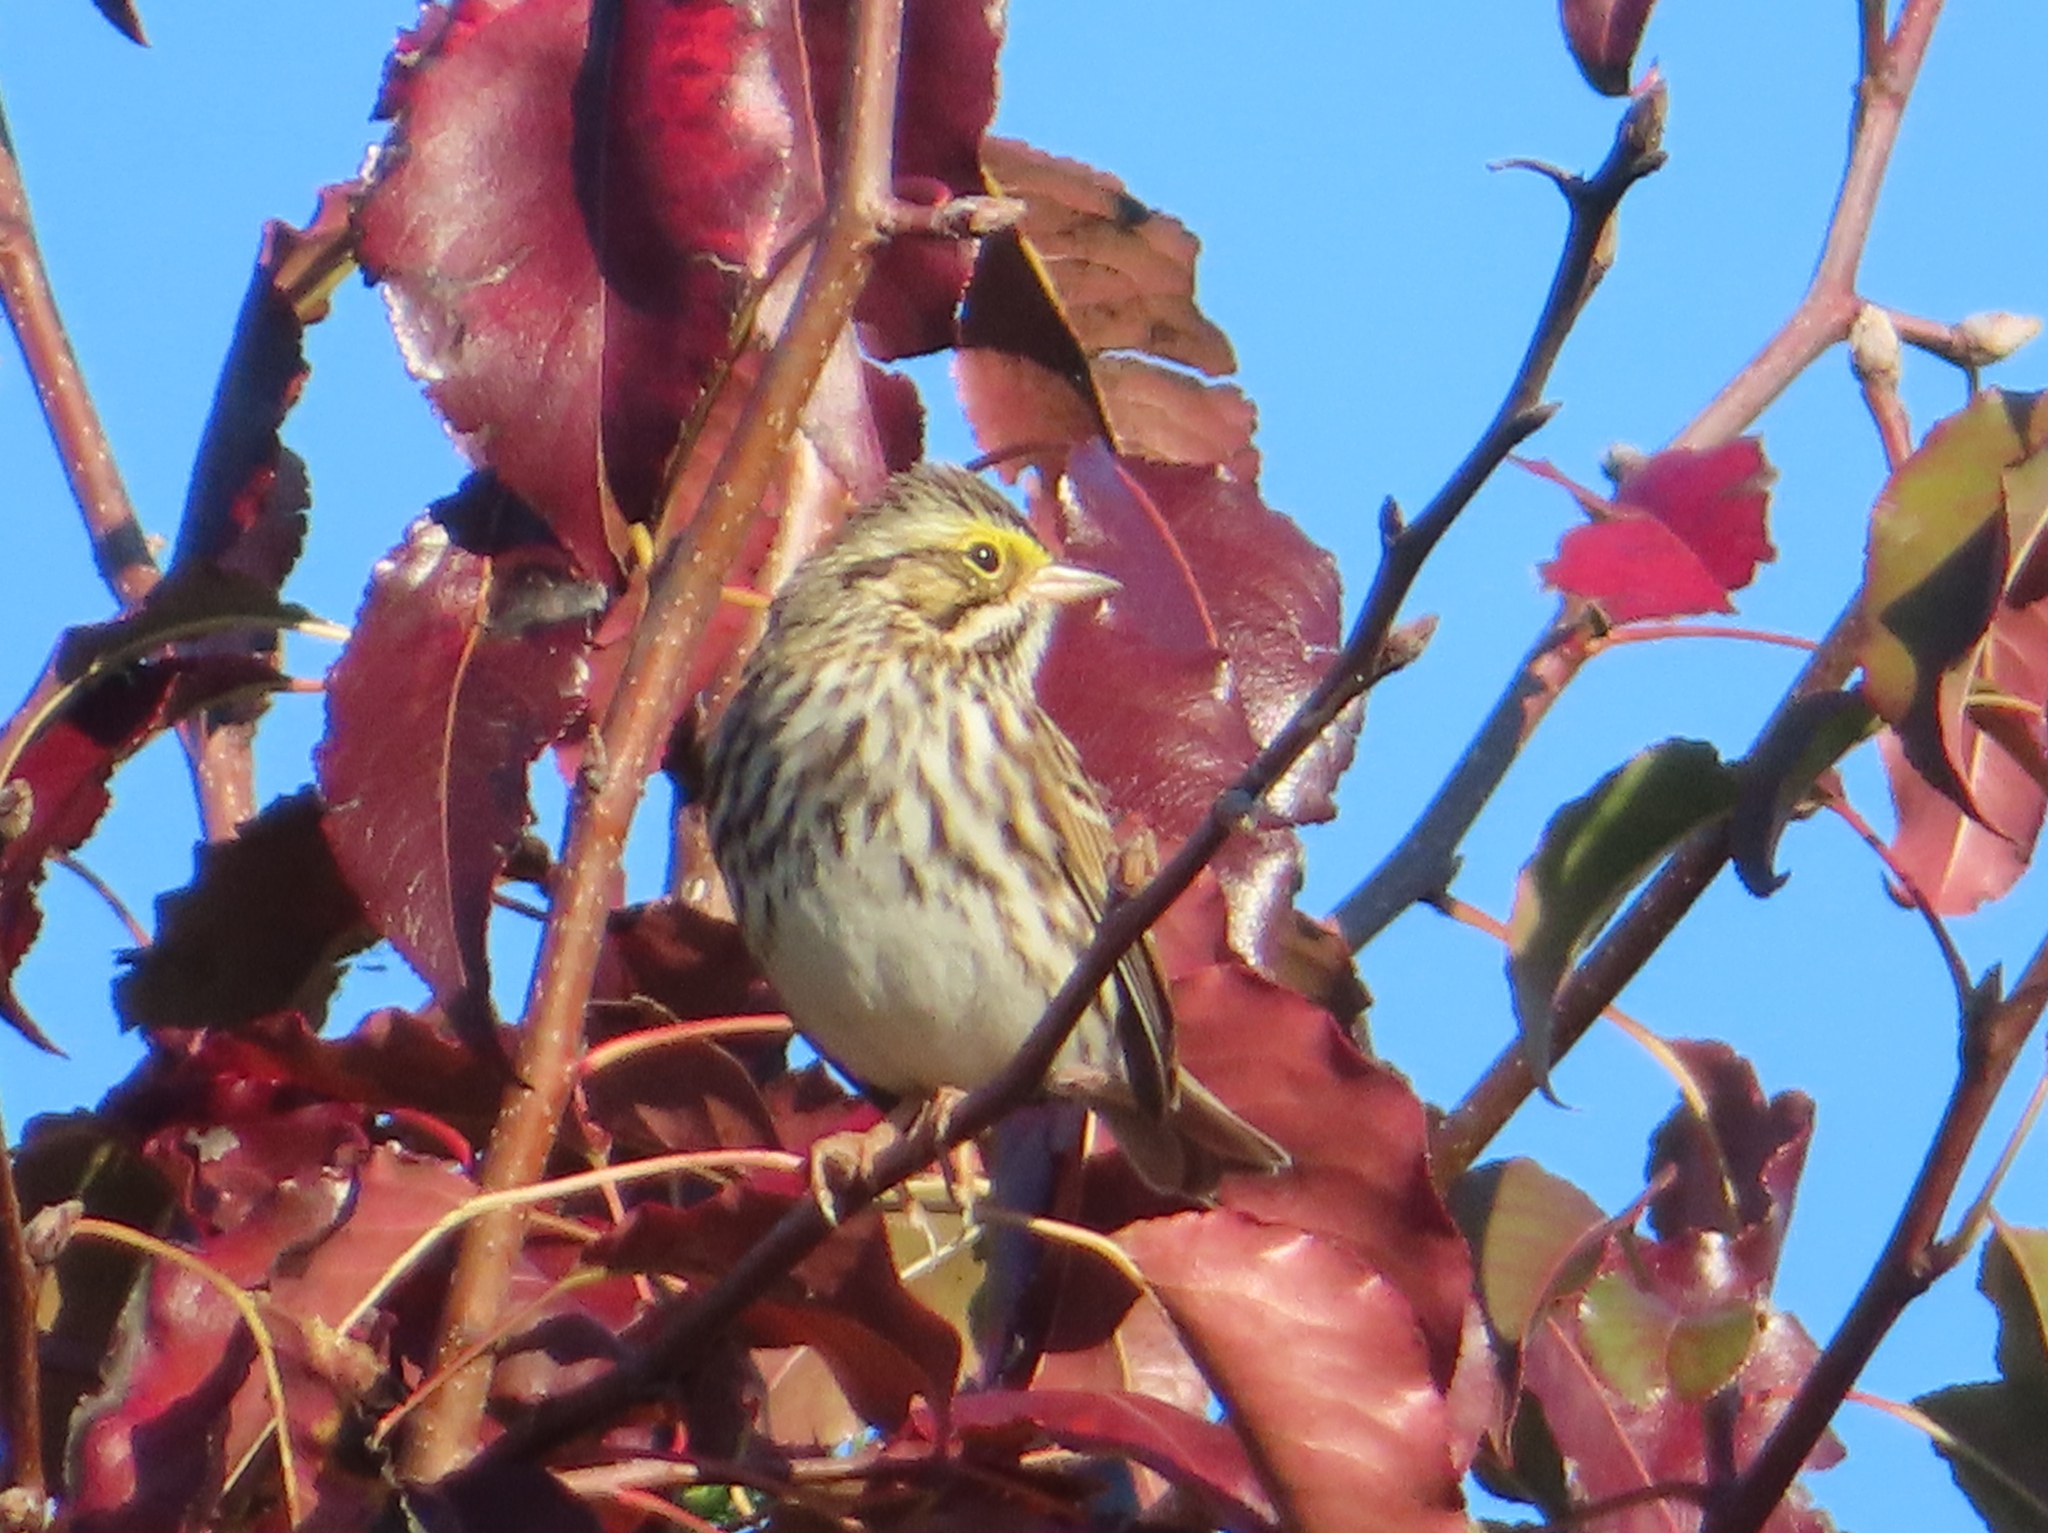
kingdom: Animalia
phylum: Chordata
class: Aves
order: Passeriformes
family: Passerellidae
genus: Passerculus
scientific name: Passerculus sandwichensis
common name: Savannah sparrow
